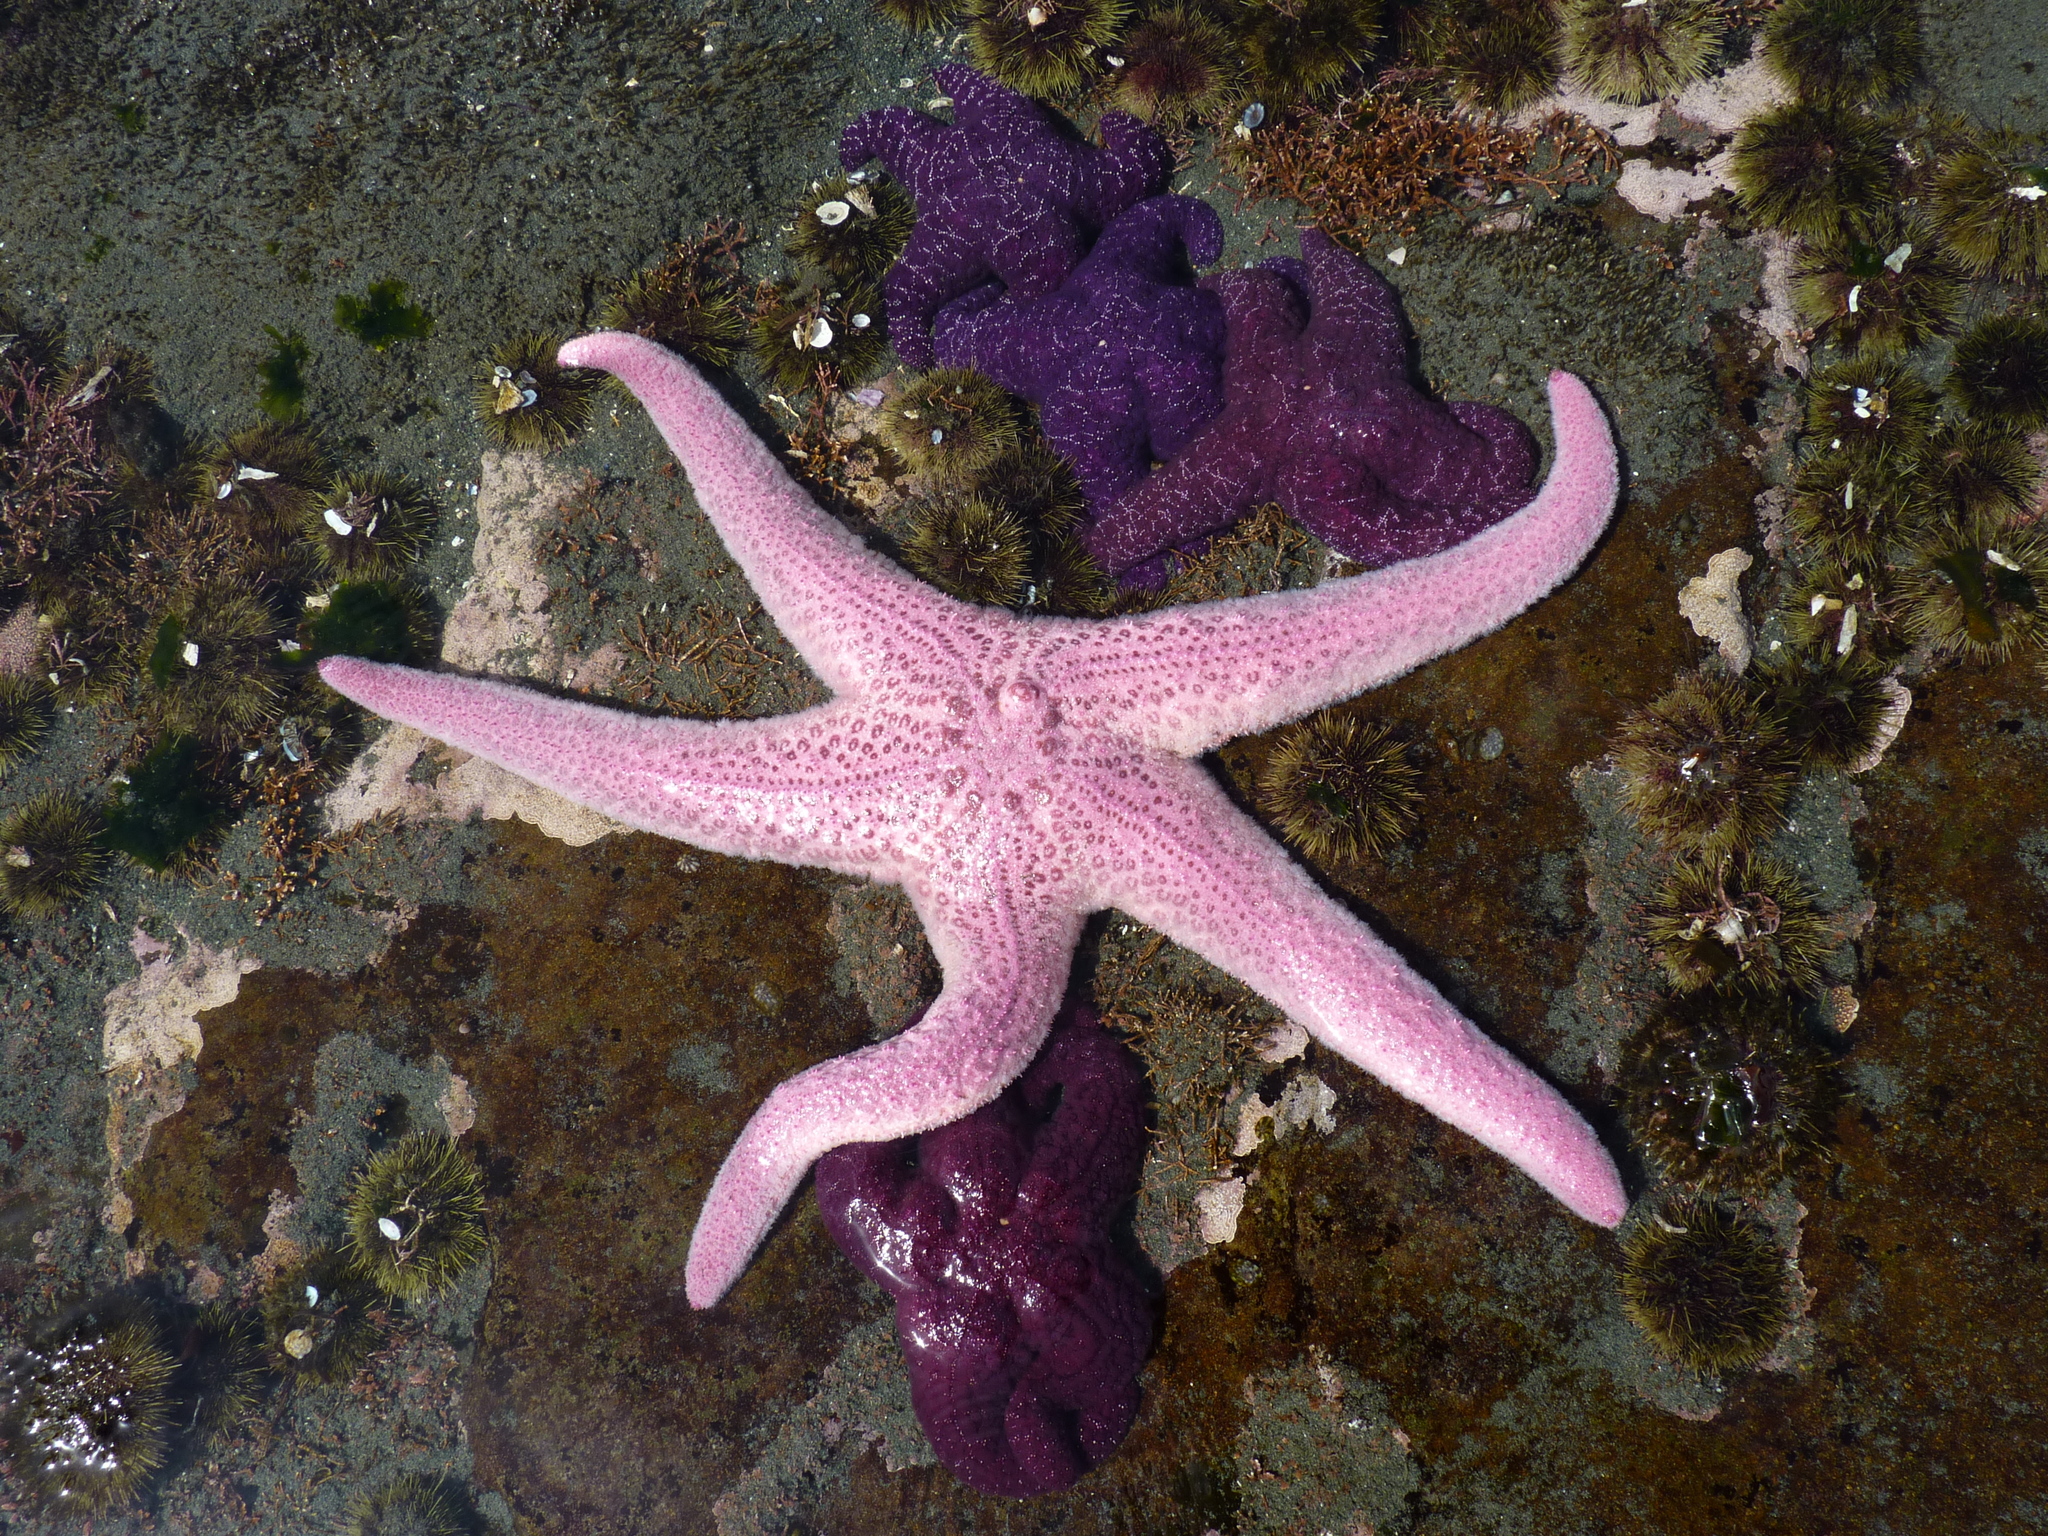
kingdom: Animalia
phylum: Echinodermata
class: Asteroidea
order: Forcipulatida
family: Asteriidae
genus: Pisaster
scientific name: Pisaster brevispinus
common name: Pink stars
